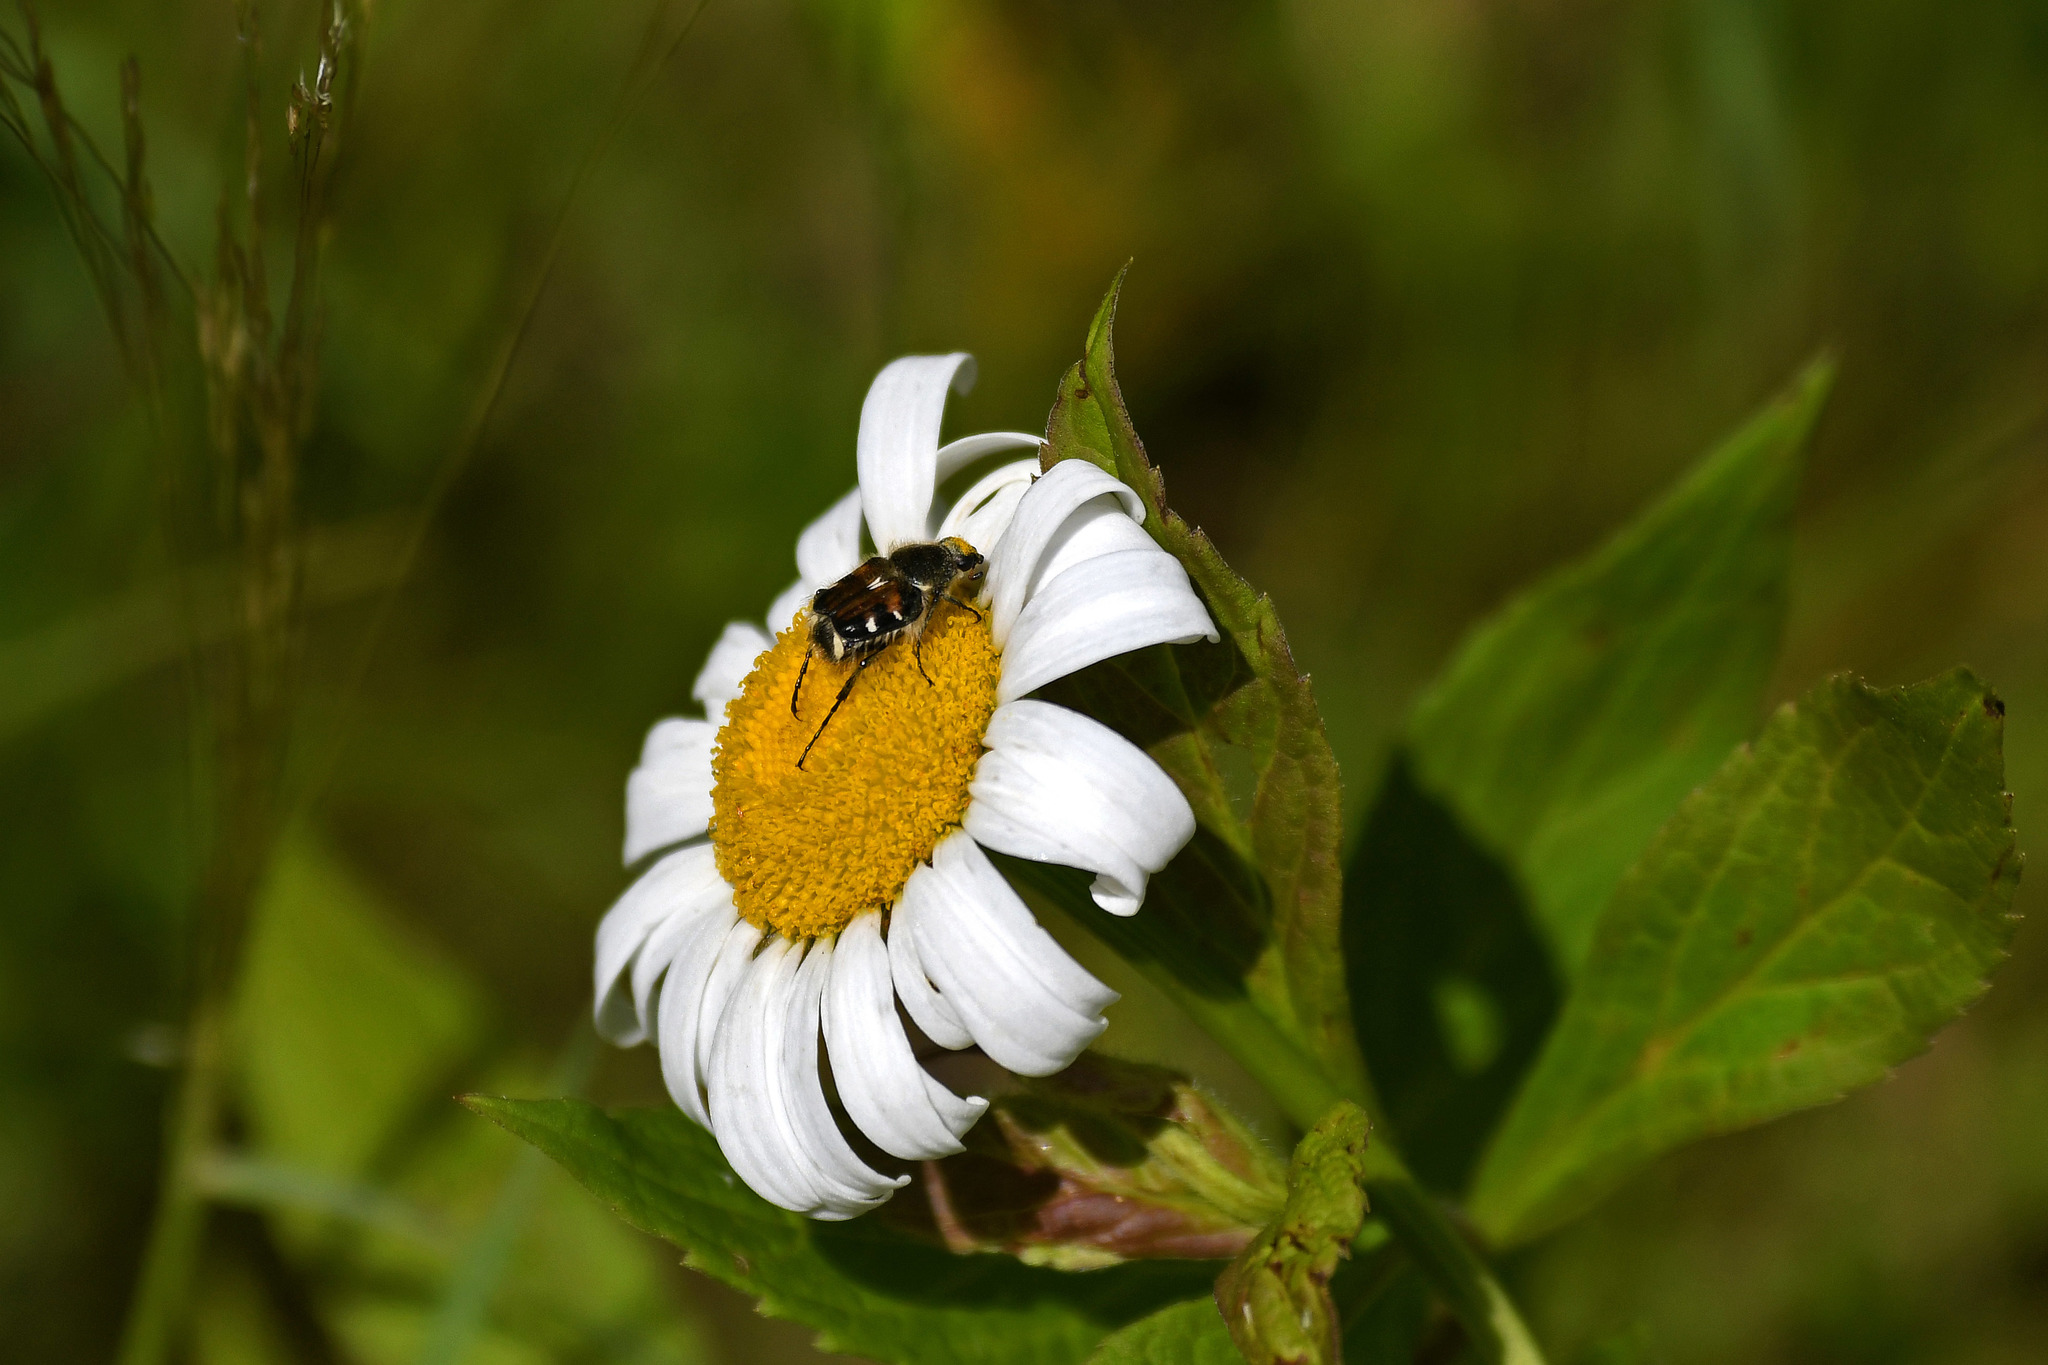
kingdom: Animalia
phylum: Arthropoda
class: Insecta
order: Coleoptera
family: Scarabaeidae
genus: Trichiotinus
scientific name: Trichiotinus affinis
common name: Hairy flower scarab
